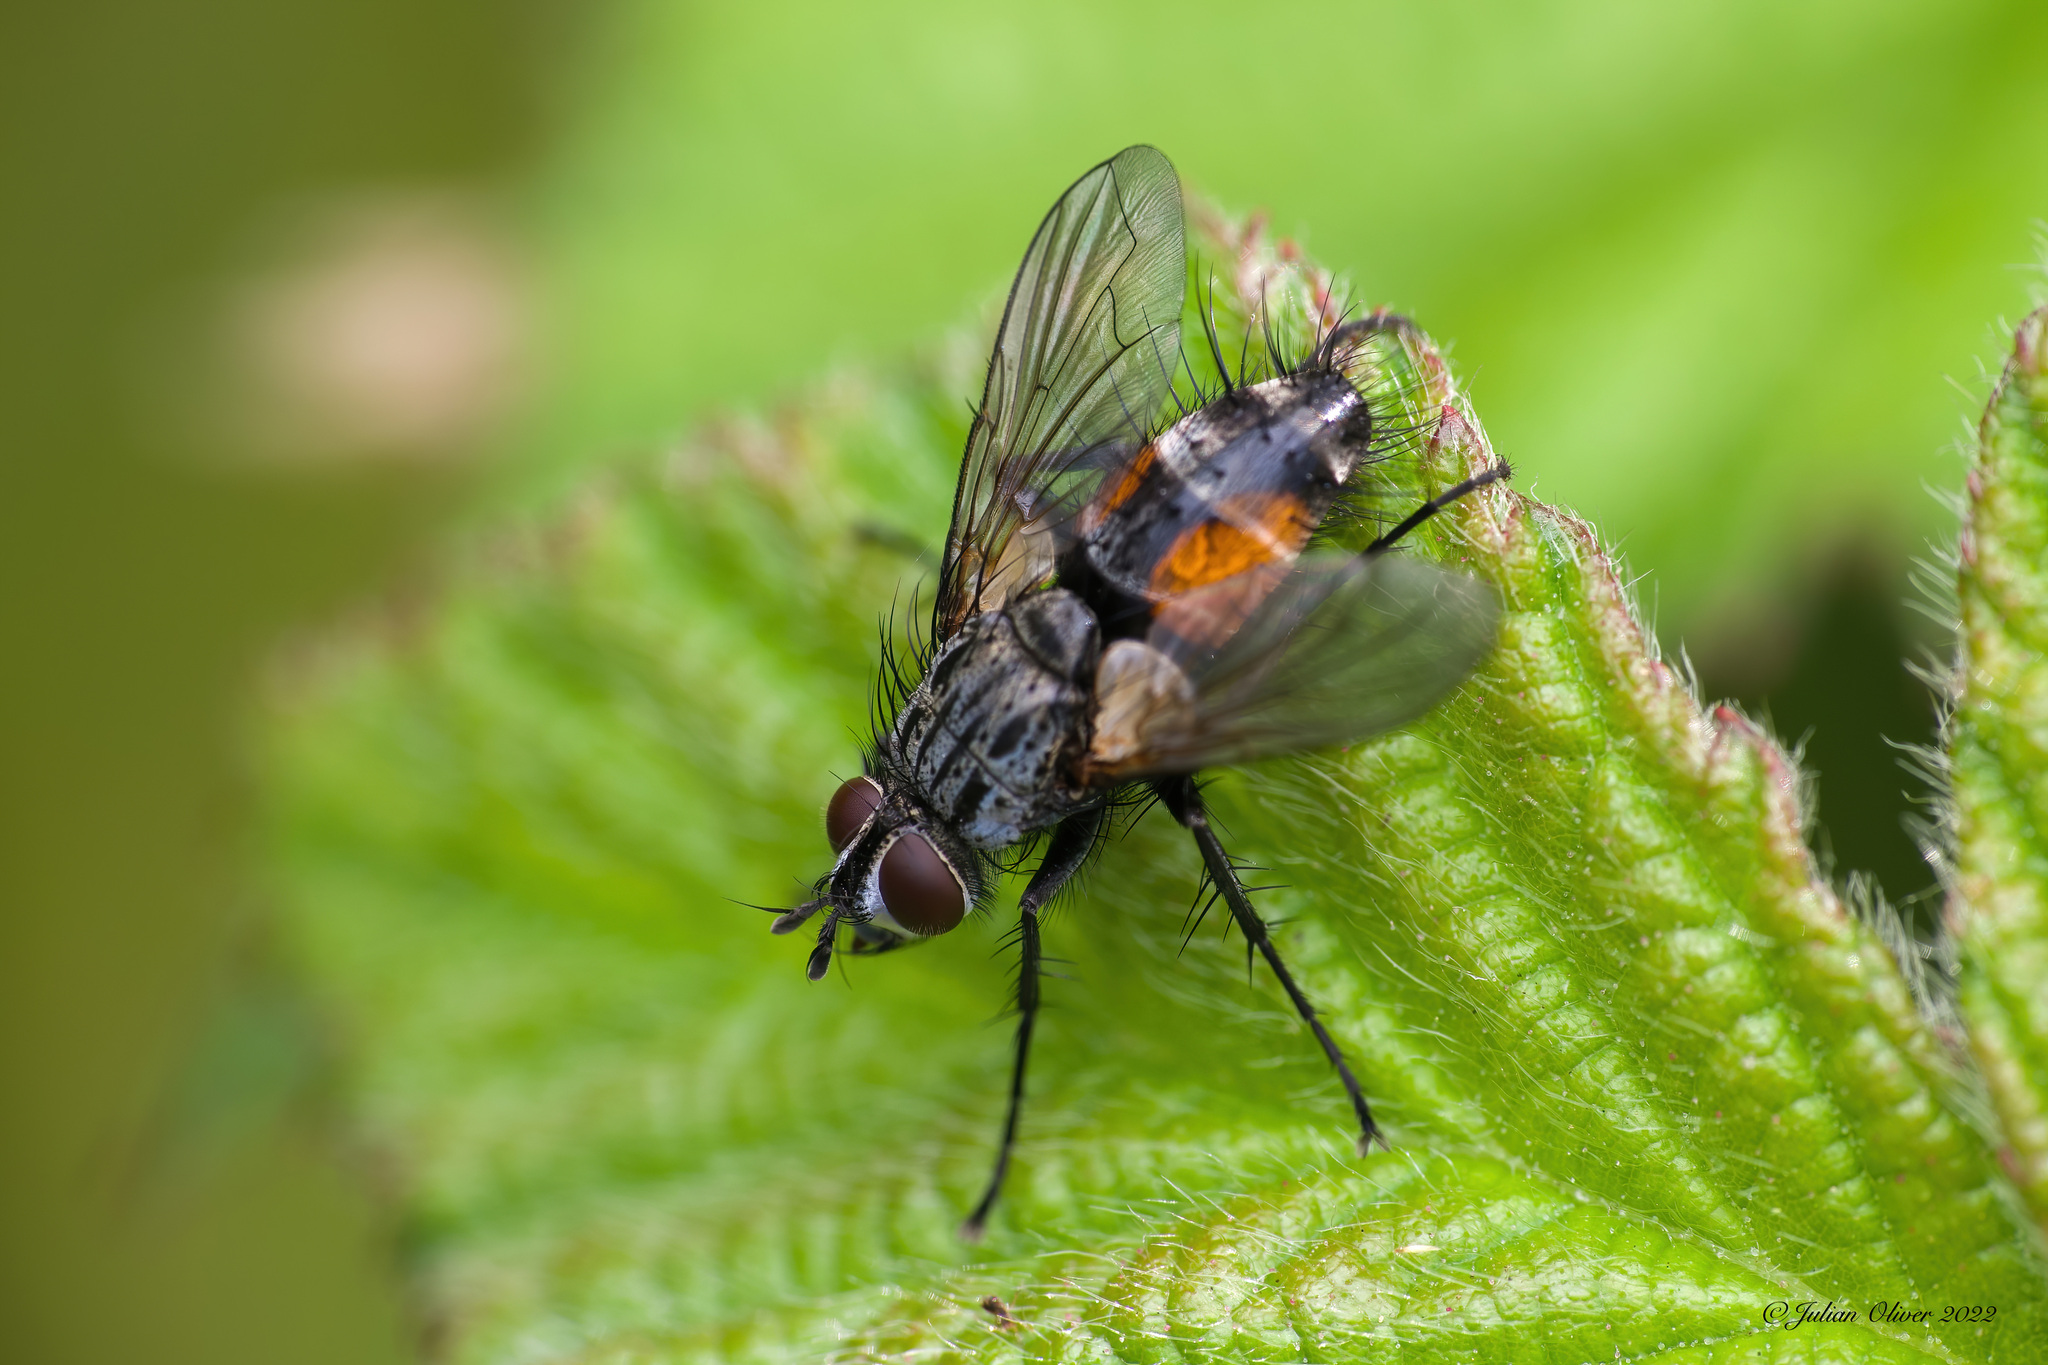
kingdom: Animalia
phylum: Arthropoda
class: Insecta
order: Diptera
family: Tachinidae
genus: Eriothrix
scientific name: Eriothrix rufomaculatus
